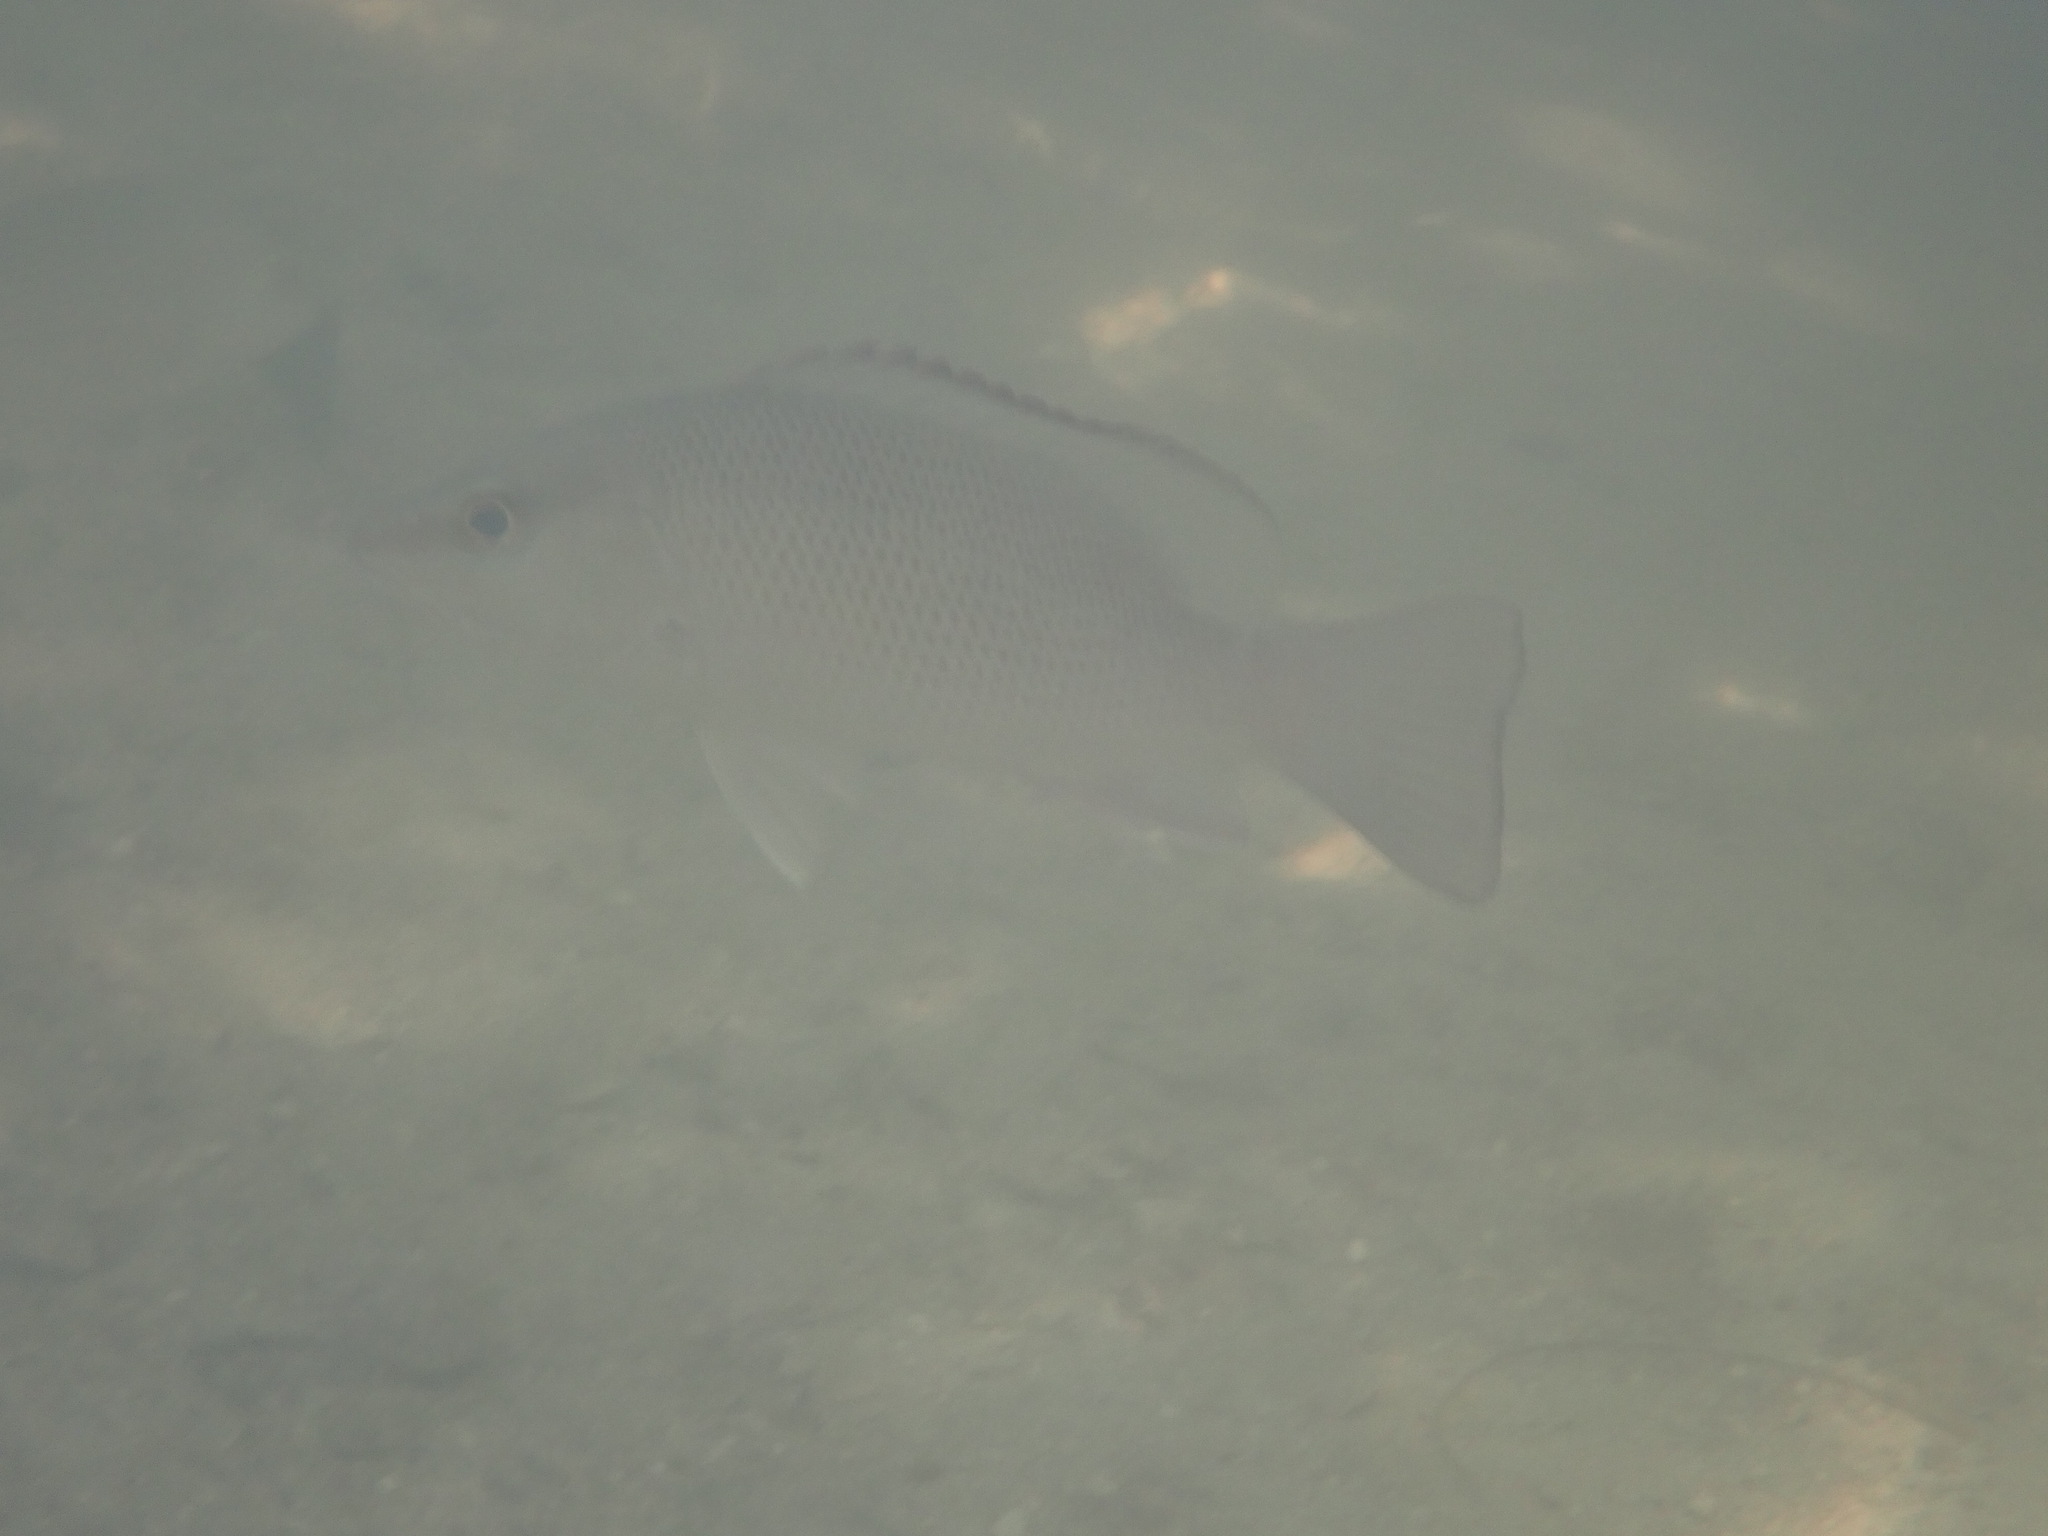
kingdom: Animalia
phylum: Chordata
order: Perciformes
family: Lutjanidae
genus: Lutjanus
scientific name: Lutjanus griseus
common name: Gray snapper
